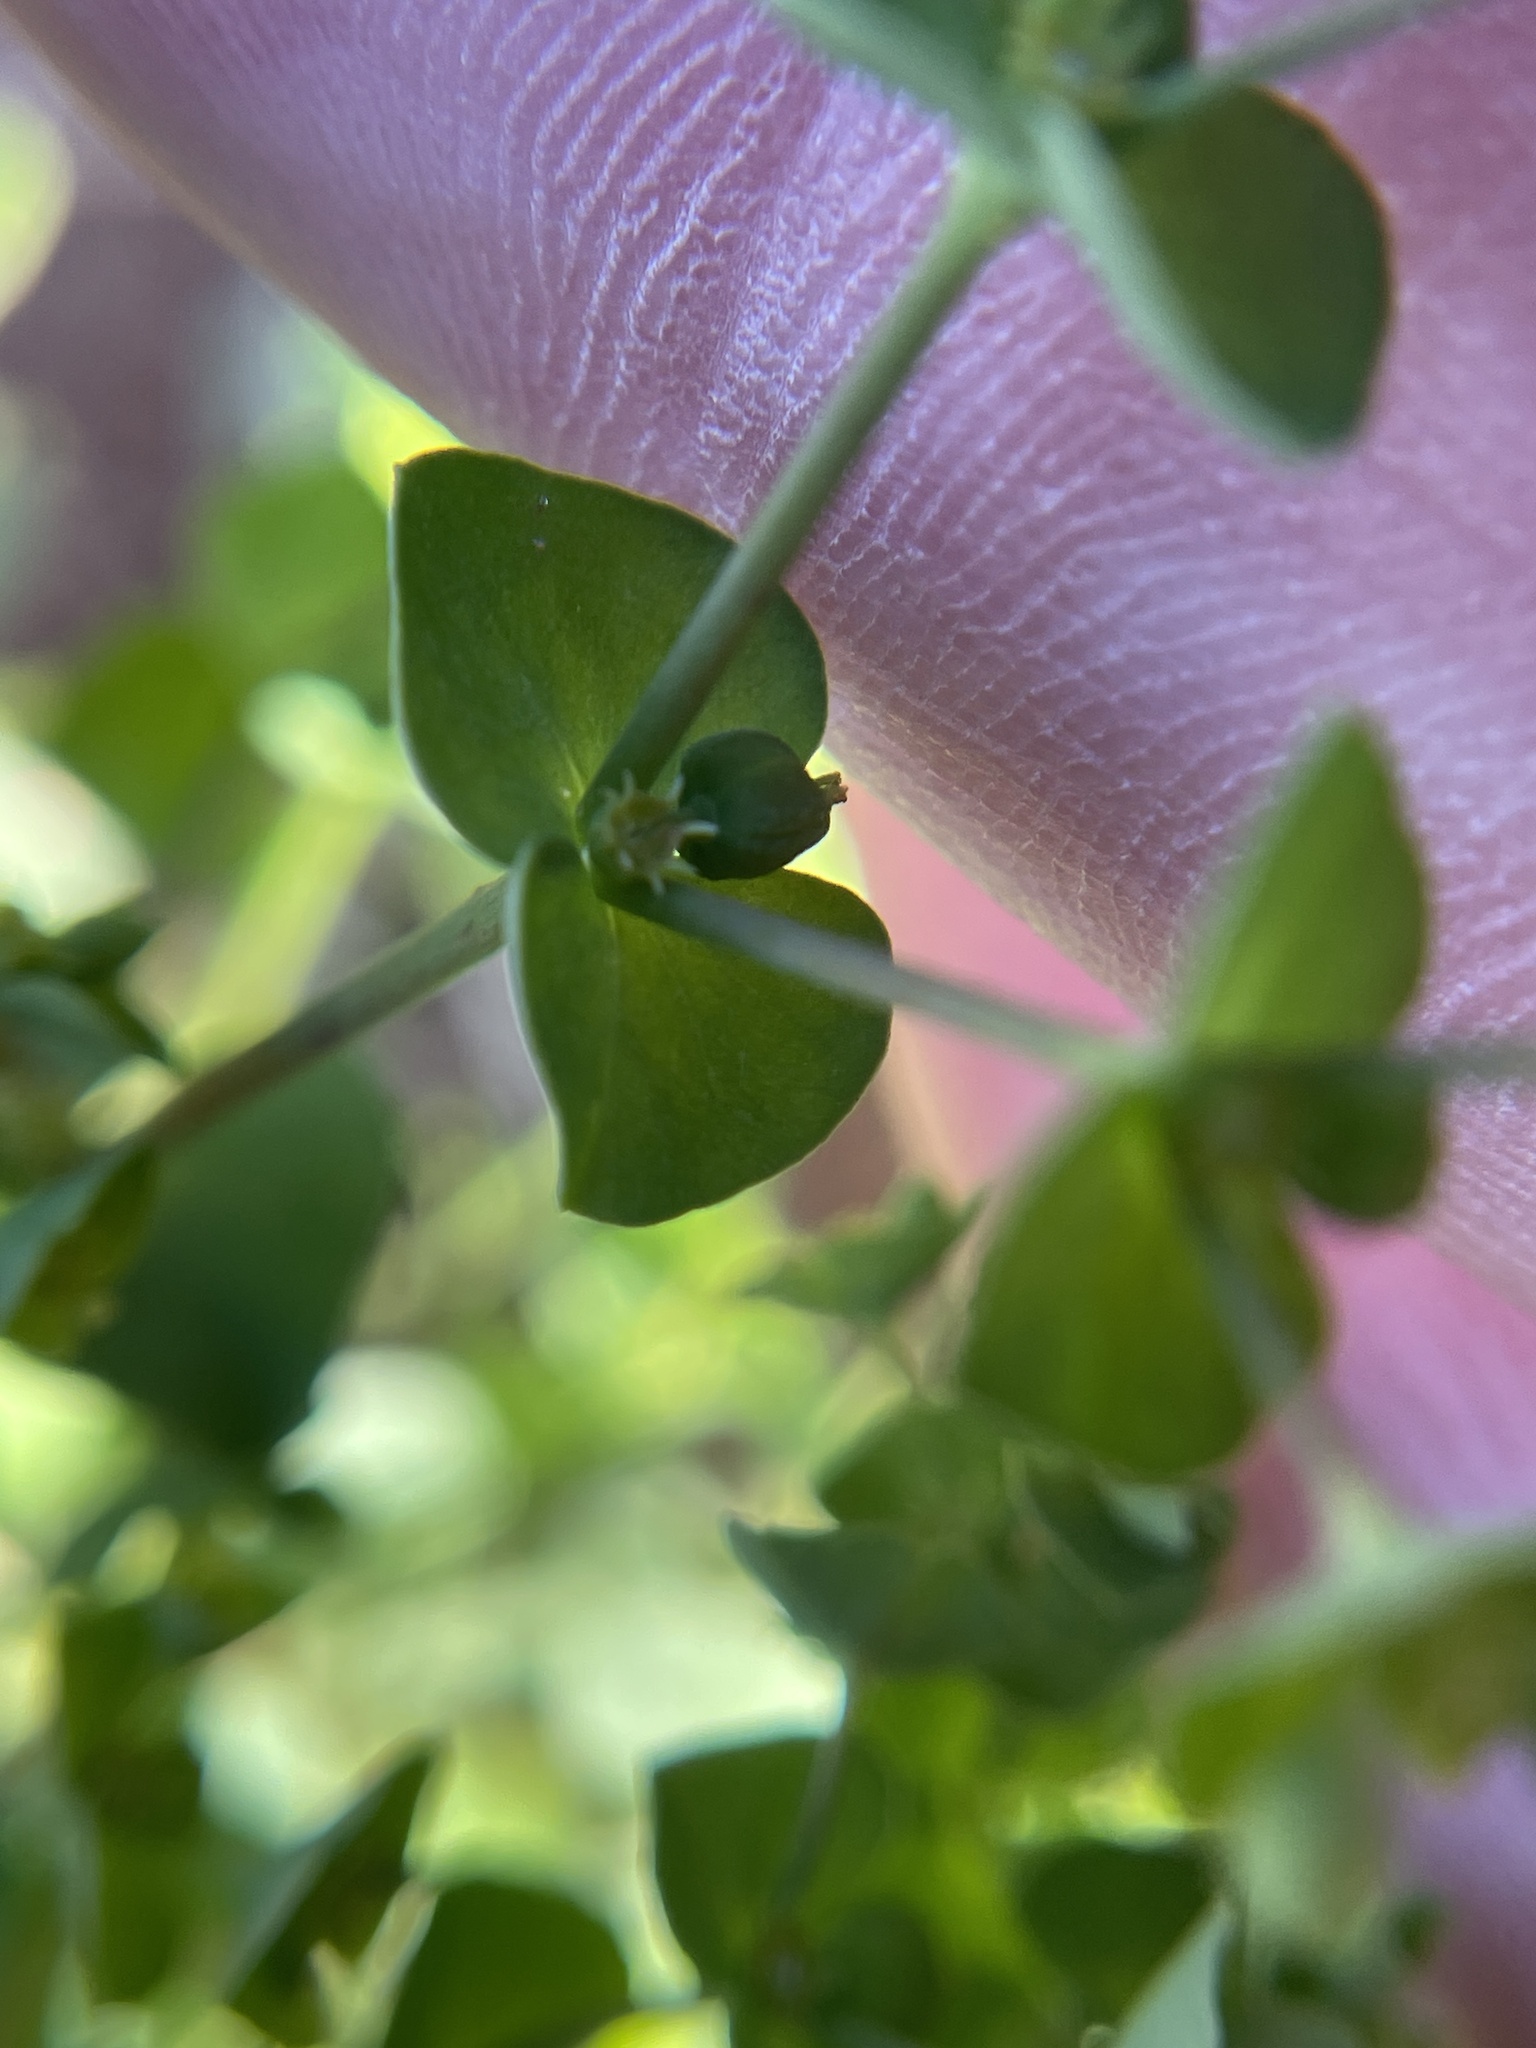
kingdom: Plantae
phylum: Tracheophyta
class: Magnoliopsida
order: Malpighiales
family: Euphorbiaceae
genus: Euphorbia
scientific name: Euphorbia tetrapora
